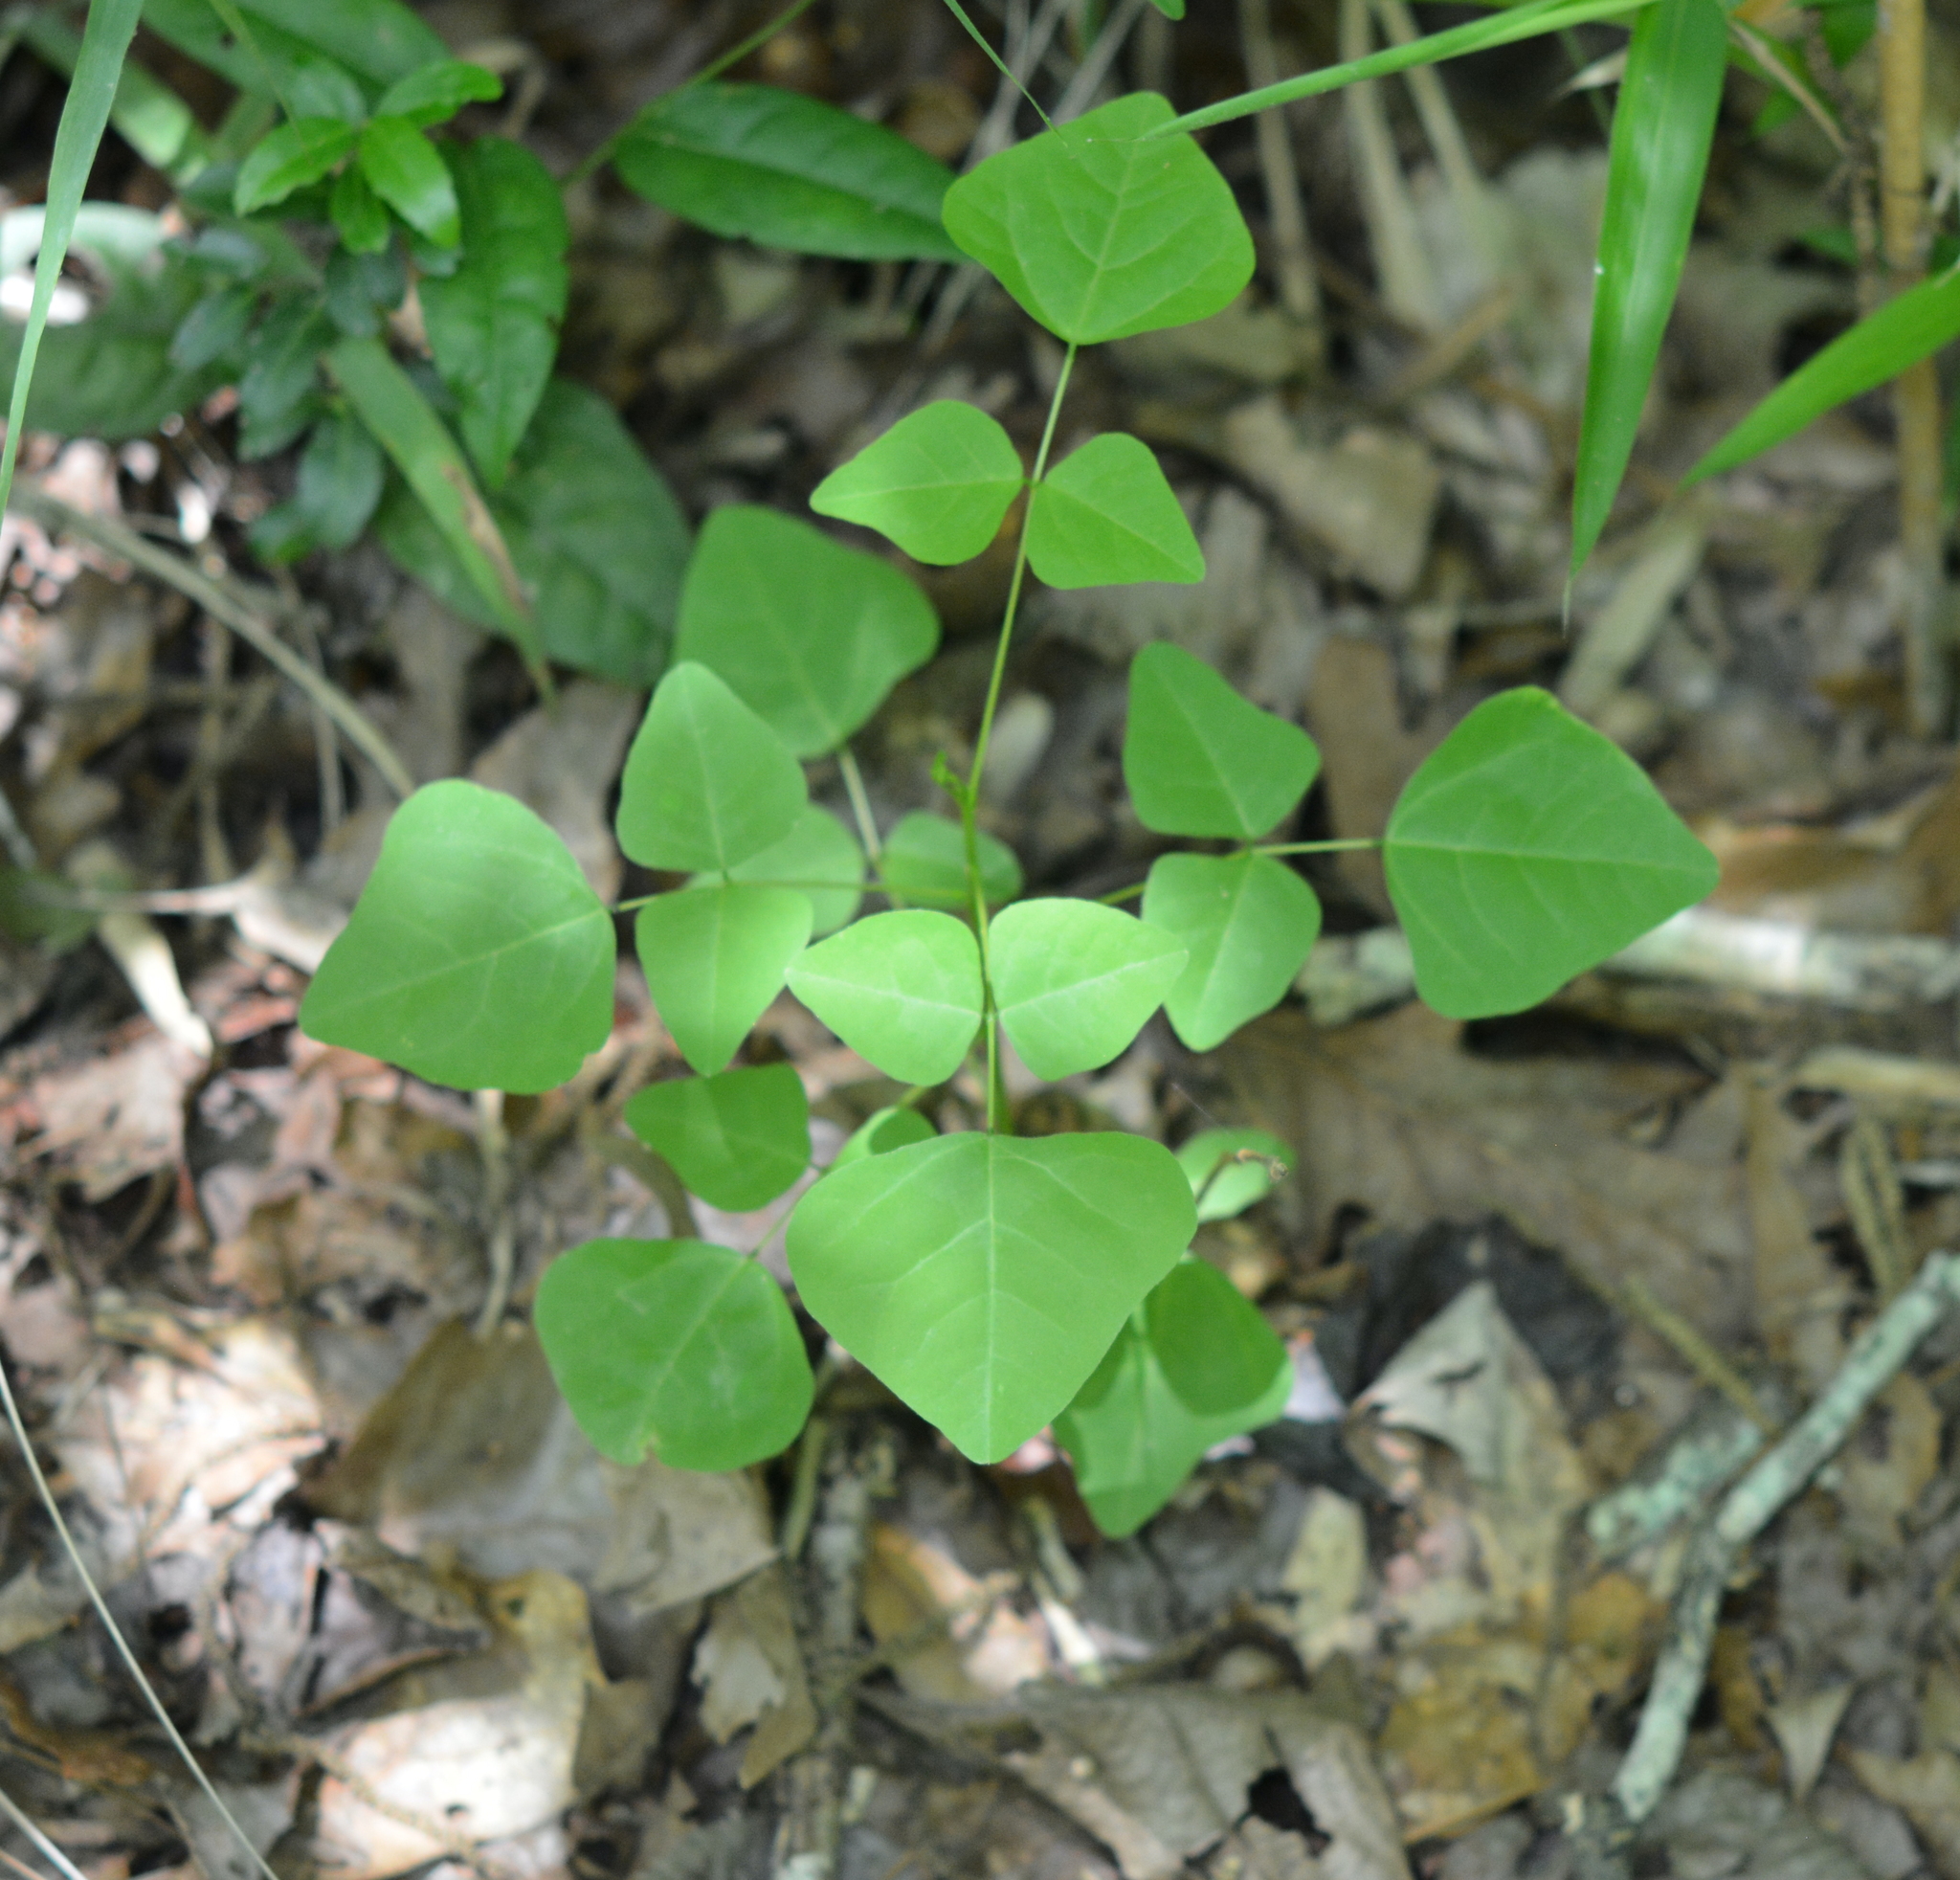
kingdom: Plantae
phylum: Tracheophyta
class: Magnoliopsida
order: Fabales
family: Fabaceae
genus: Erythrina
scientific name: Erythrina herbacea
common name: Coral-bean
